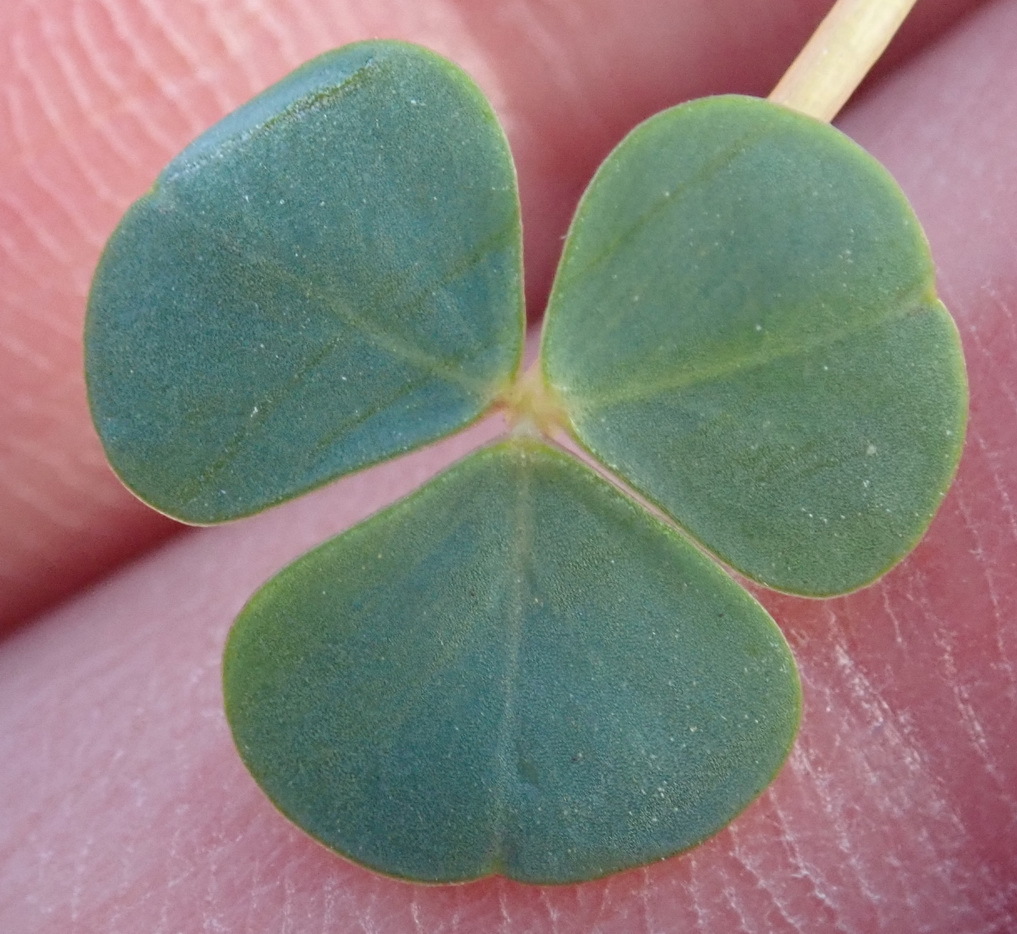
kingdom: Plantae
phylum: Tracheophyta
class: Magnoliopsida
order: Oxalidales
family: Oxalidaceae
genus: Oxalis
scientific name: Oxalis commutata
